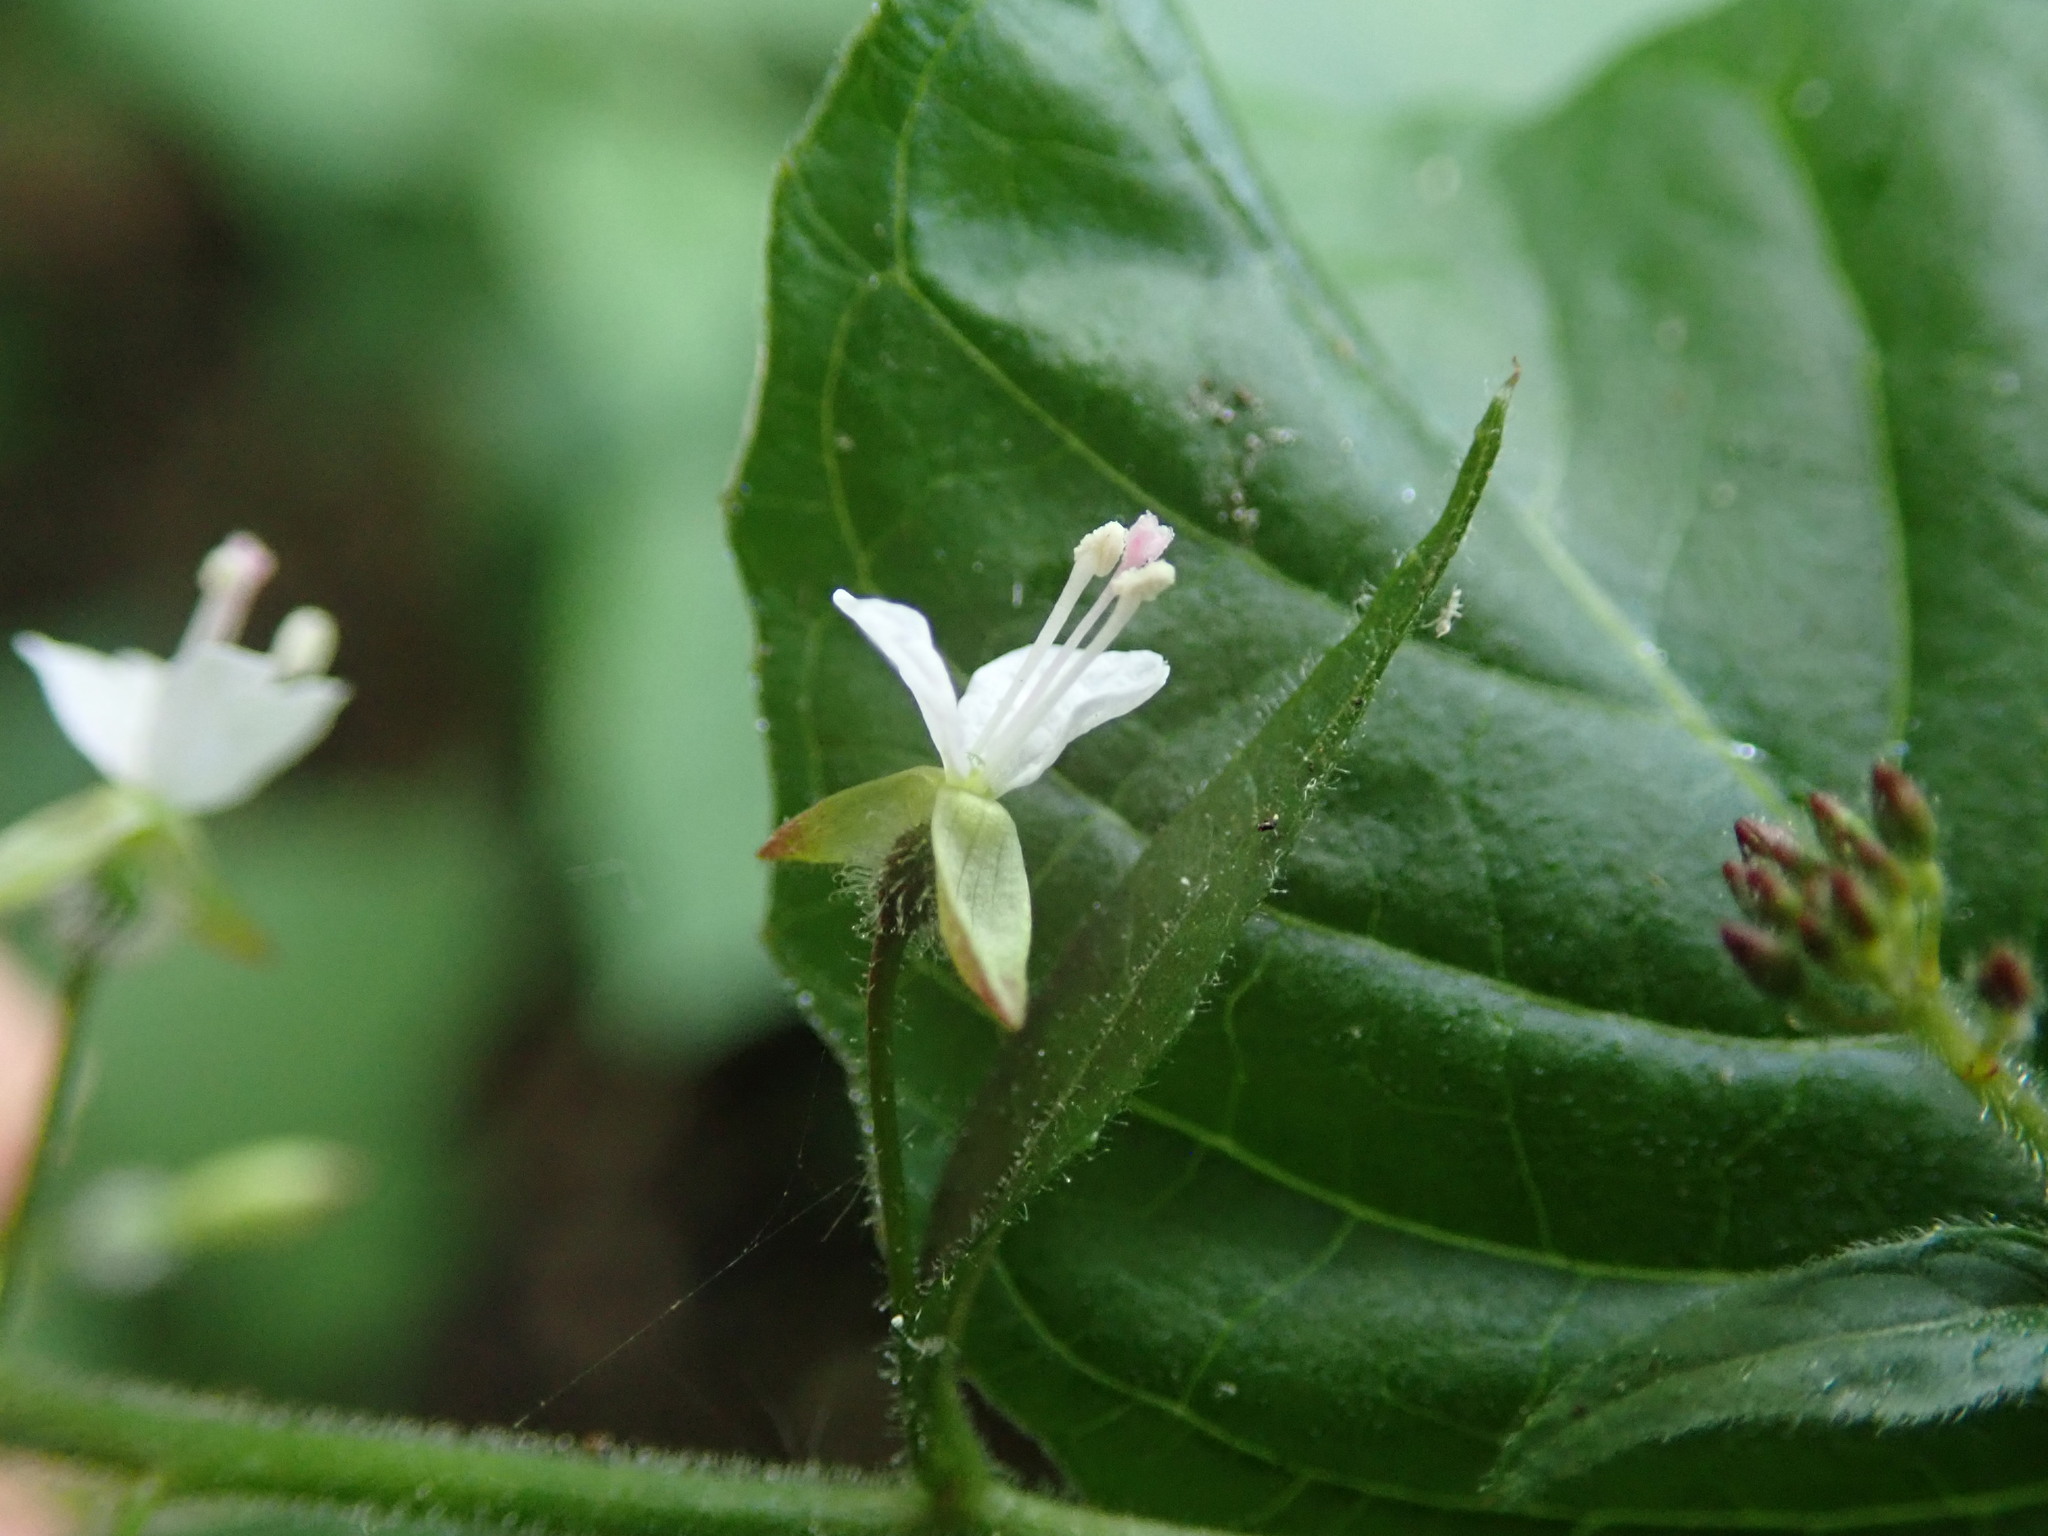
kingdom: Plantae
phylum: Tracheophyta
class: Magnoliopsida
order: Myrtales
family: Onagraceae
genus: Circaea
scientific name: Circaea lutetiana
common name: Enchanter's-nightshade
